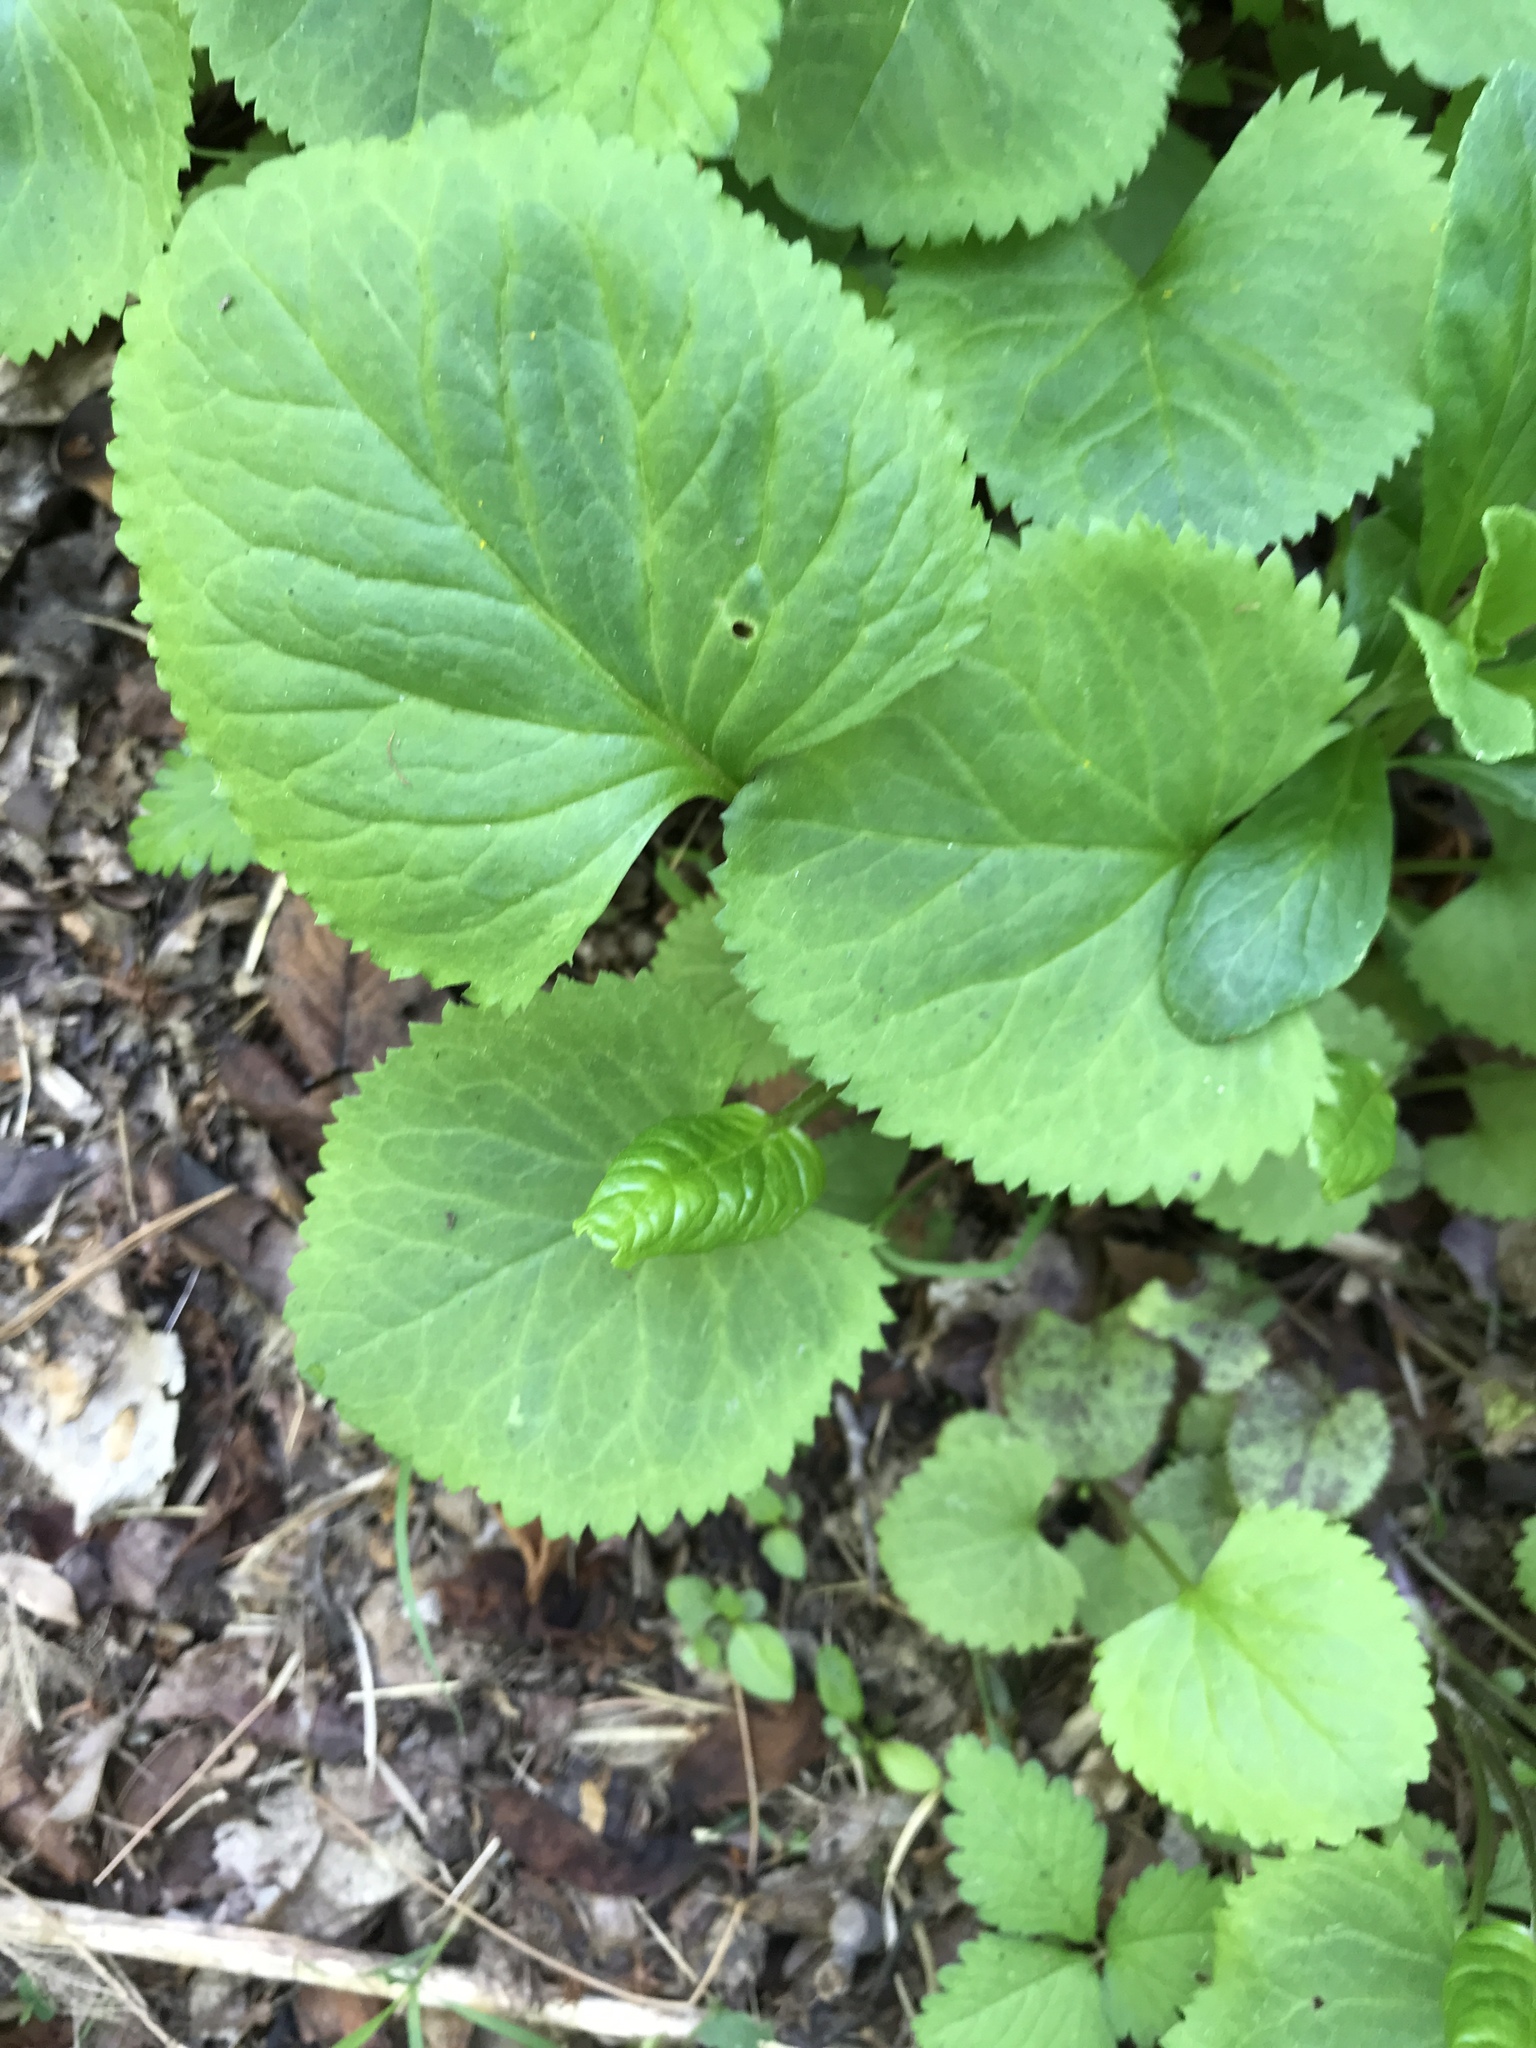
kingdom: Plantae
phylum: Tracheophyta
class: Magnoliopsida
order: Asterales
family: Asteraceae
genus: Packera
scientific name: Packera aurea
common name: Golden groundsel
